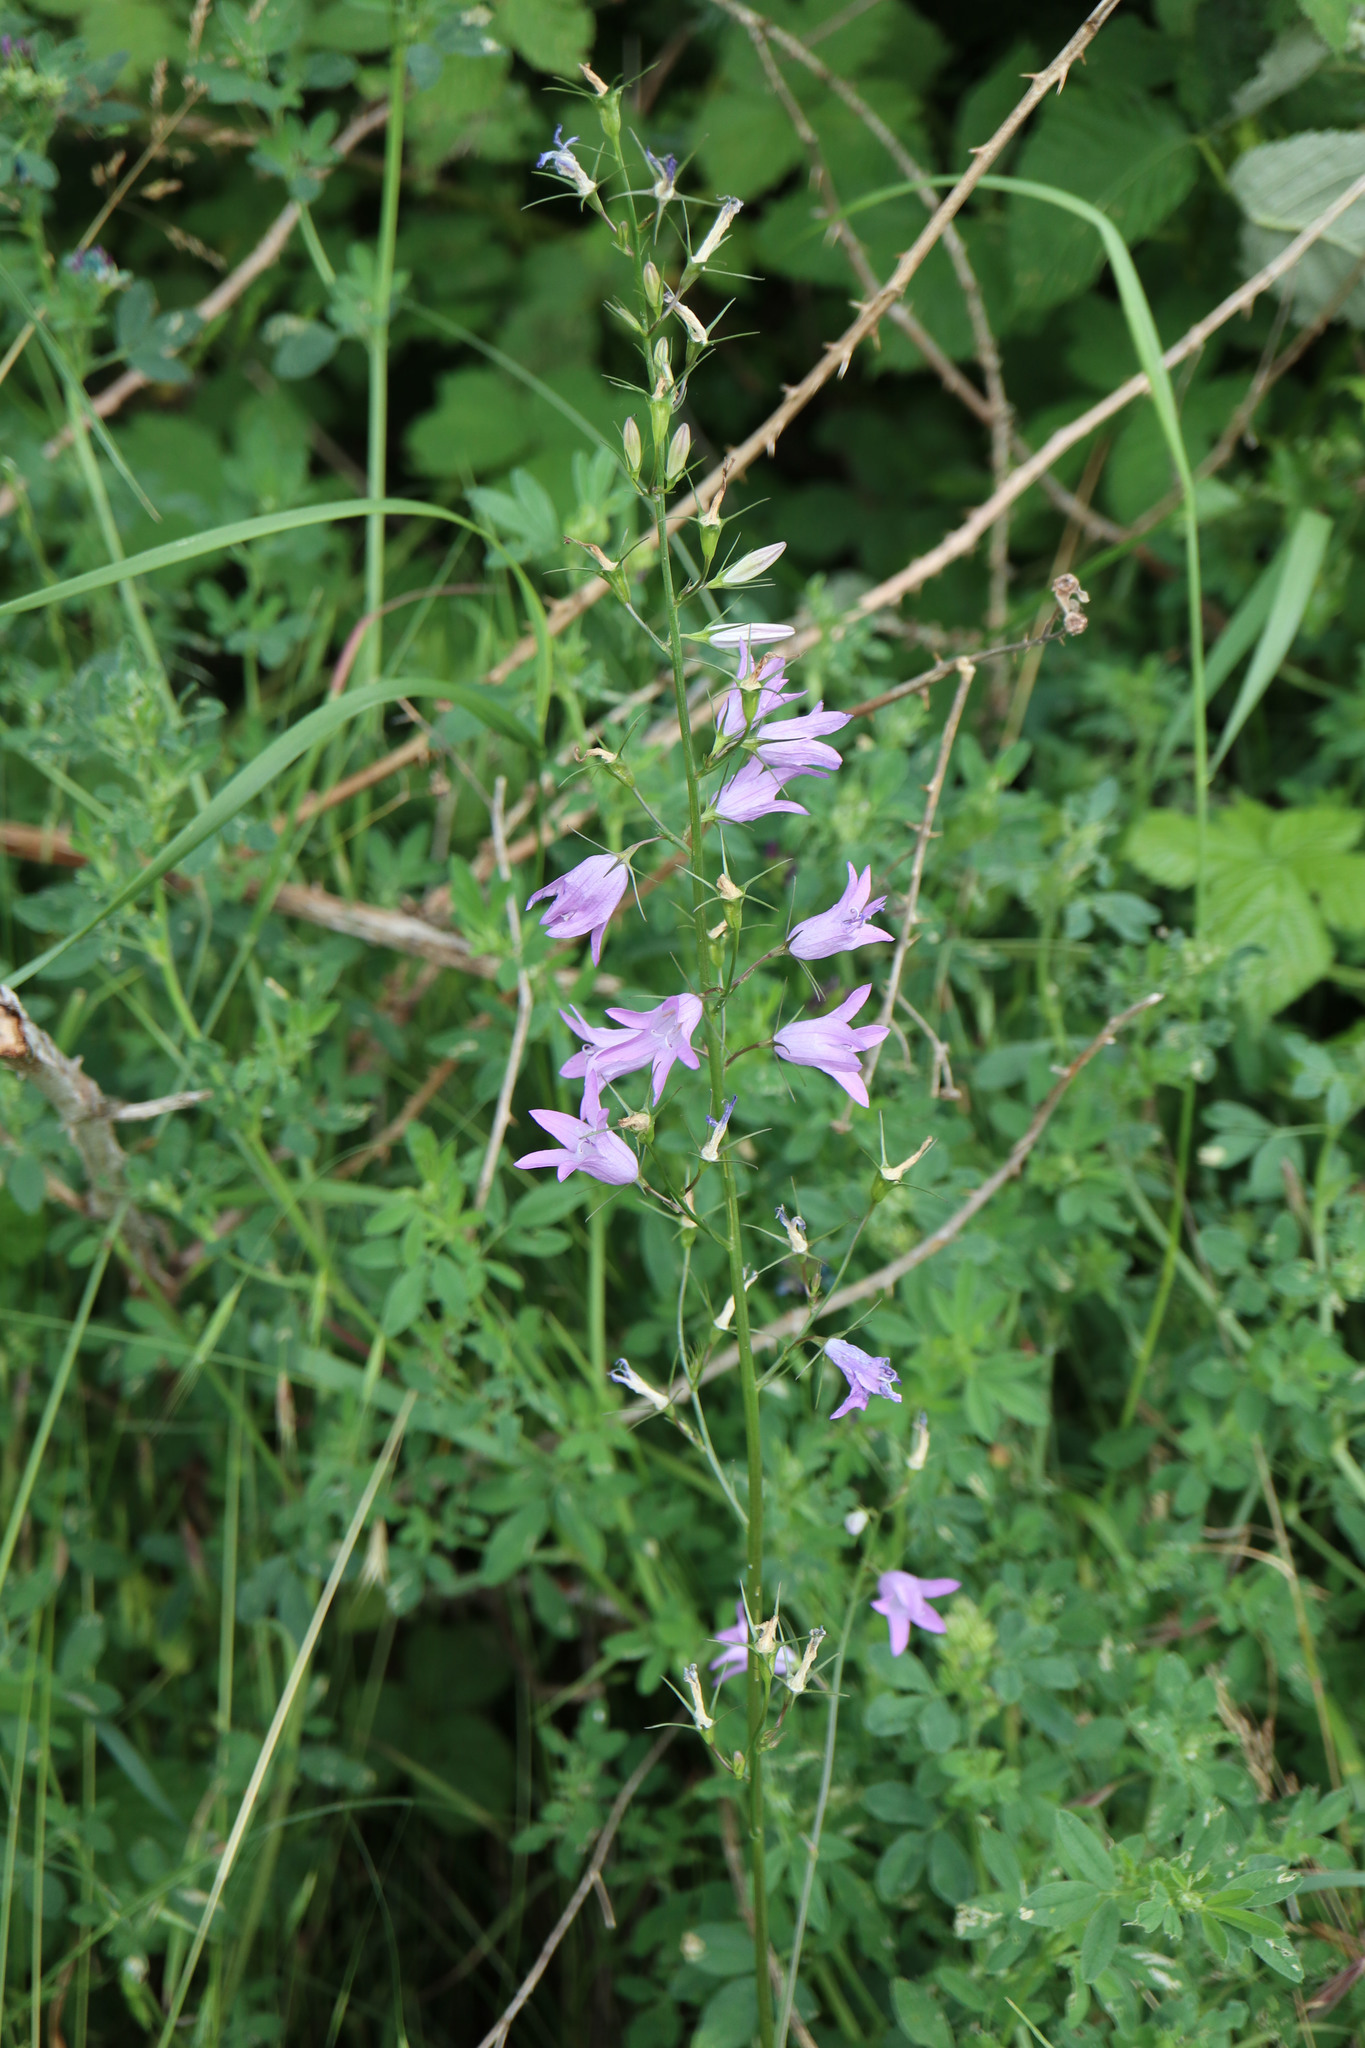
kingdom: Plantae
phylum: Tracheophyta
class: Magnoliopsida
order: Asterales
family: Campanulaceae
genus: Campanula
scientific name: Campanula rapunculus
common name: Rampion bellflower
